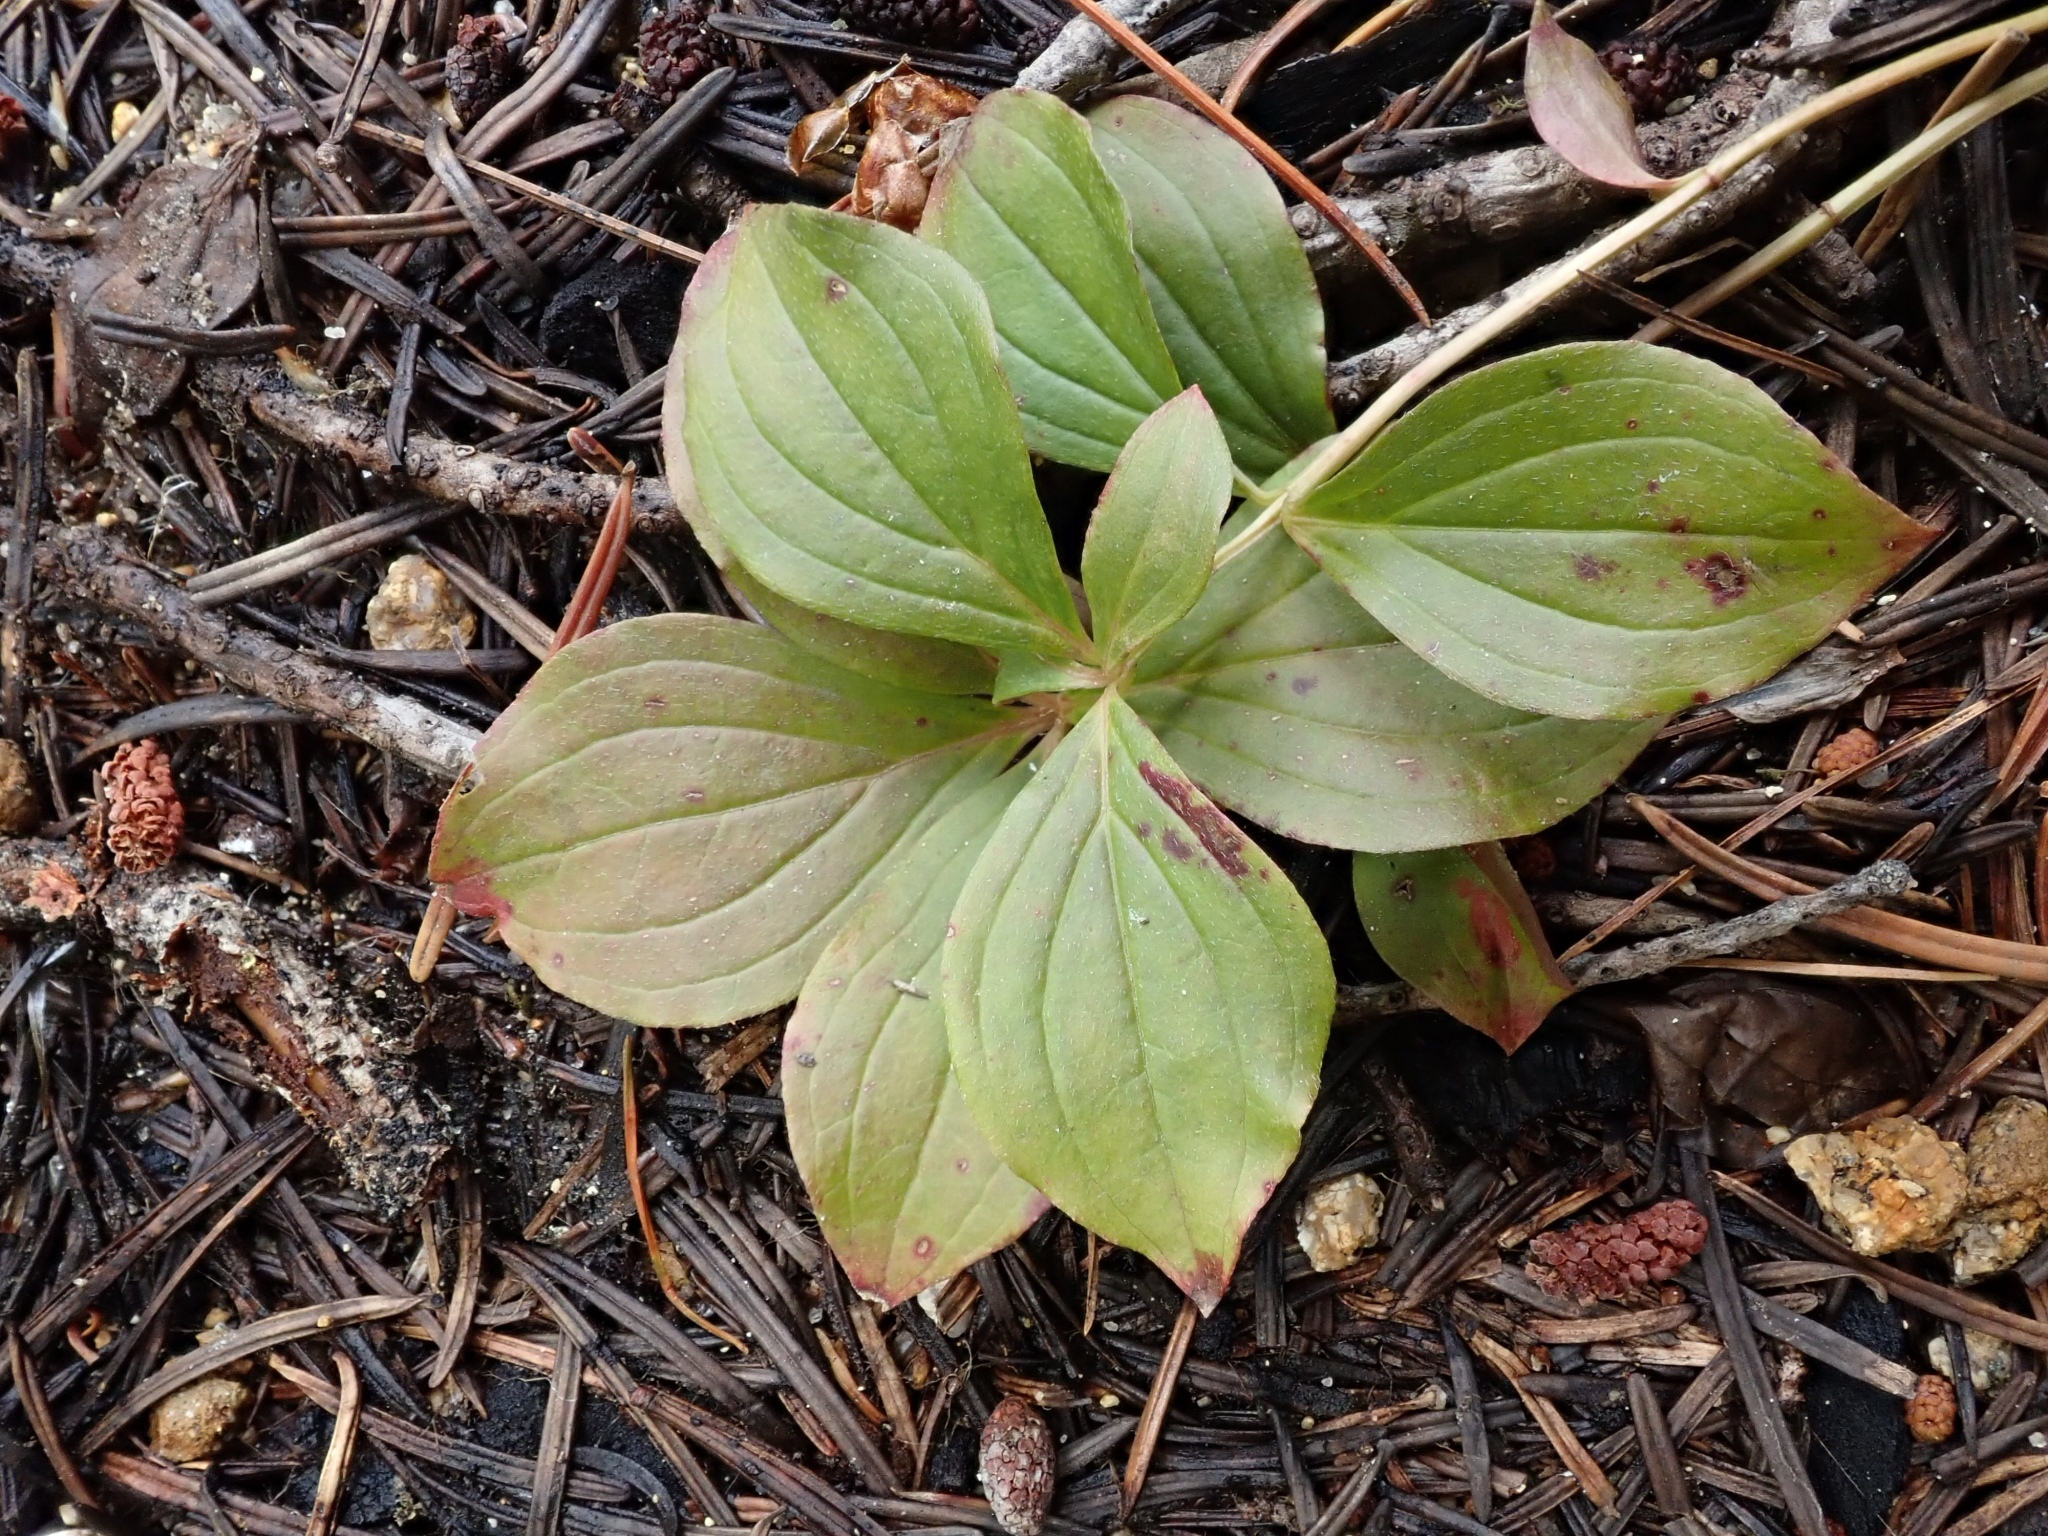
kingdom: Plantae
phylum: Tracheophyta
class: Magnoliopsida
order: Cornales
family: Cornaceae
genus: Cornus
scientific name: Cornus unalaschkensis
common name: Alaska bunchberry
